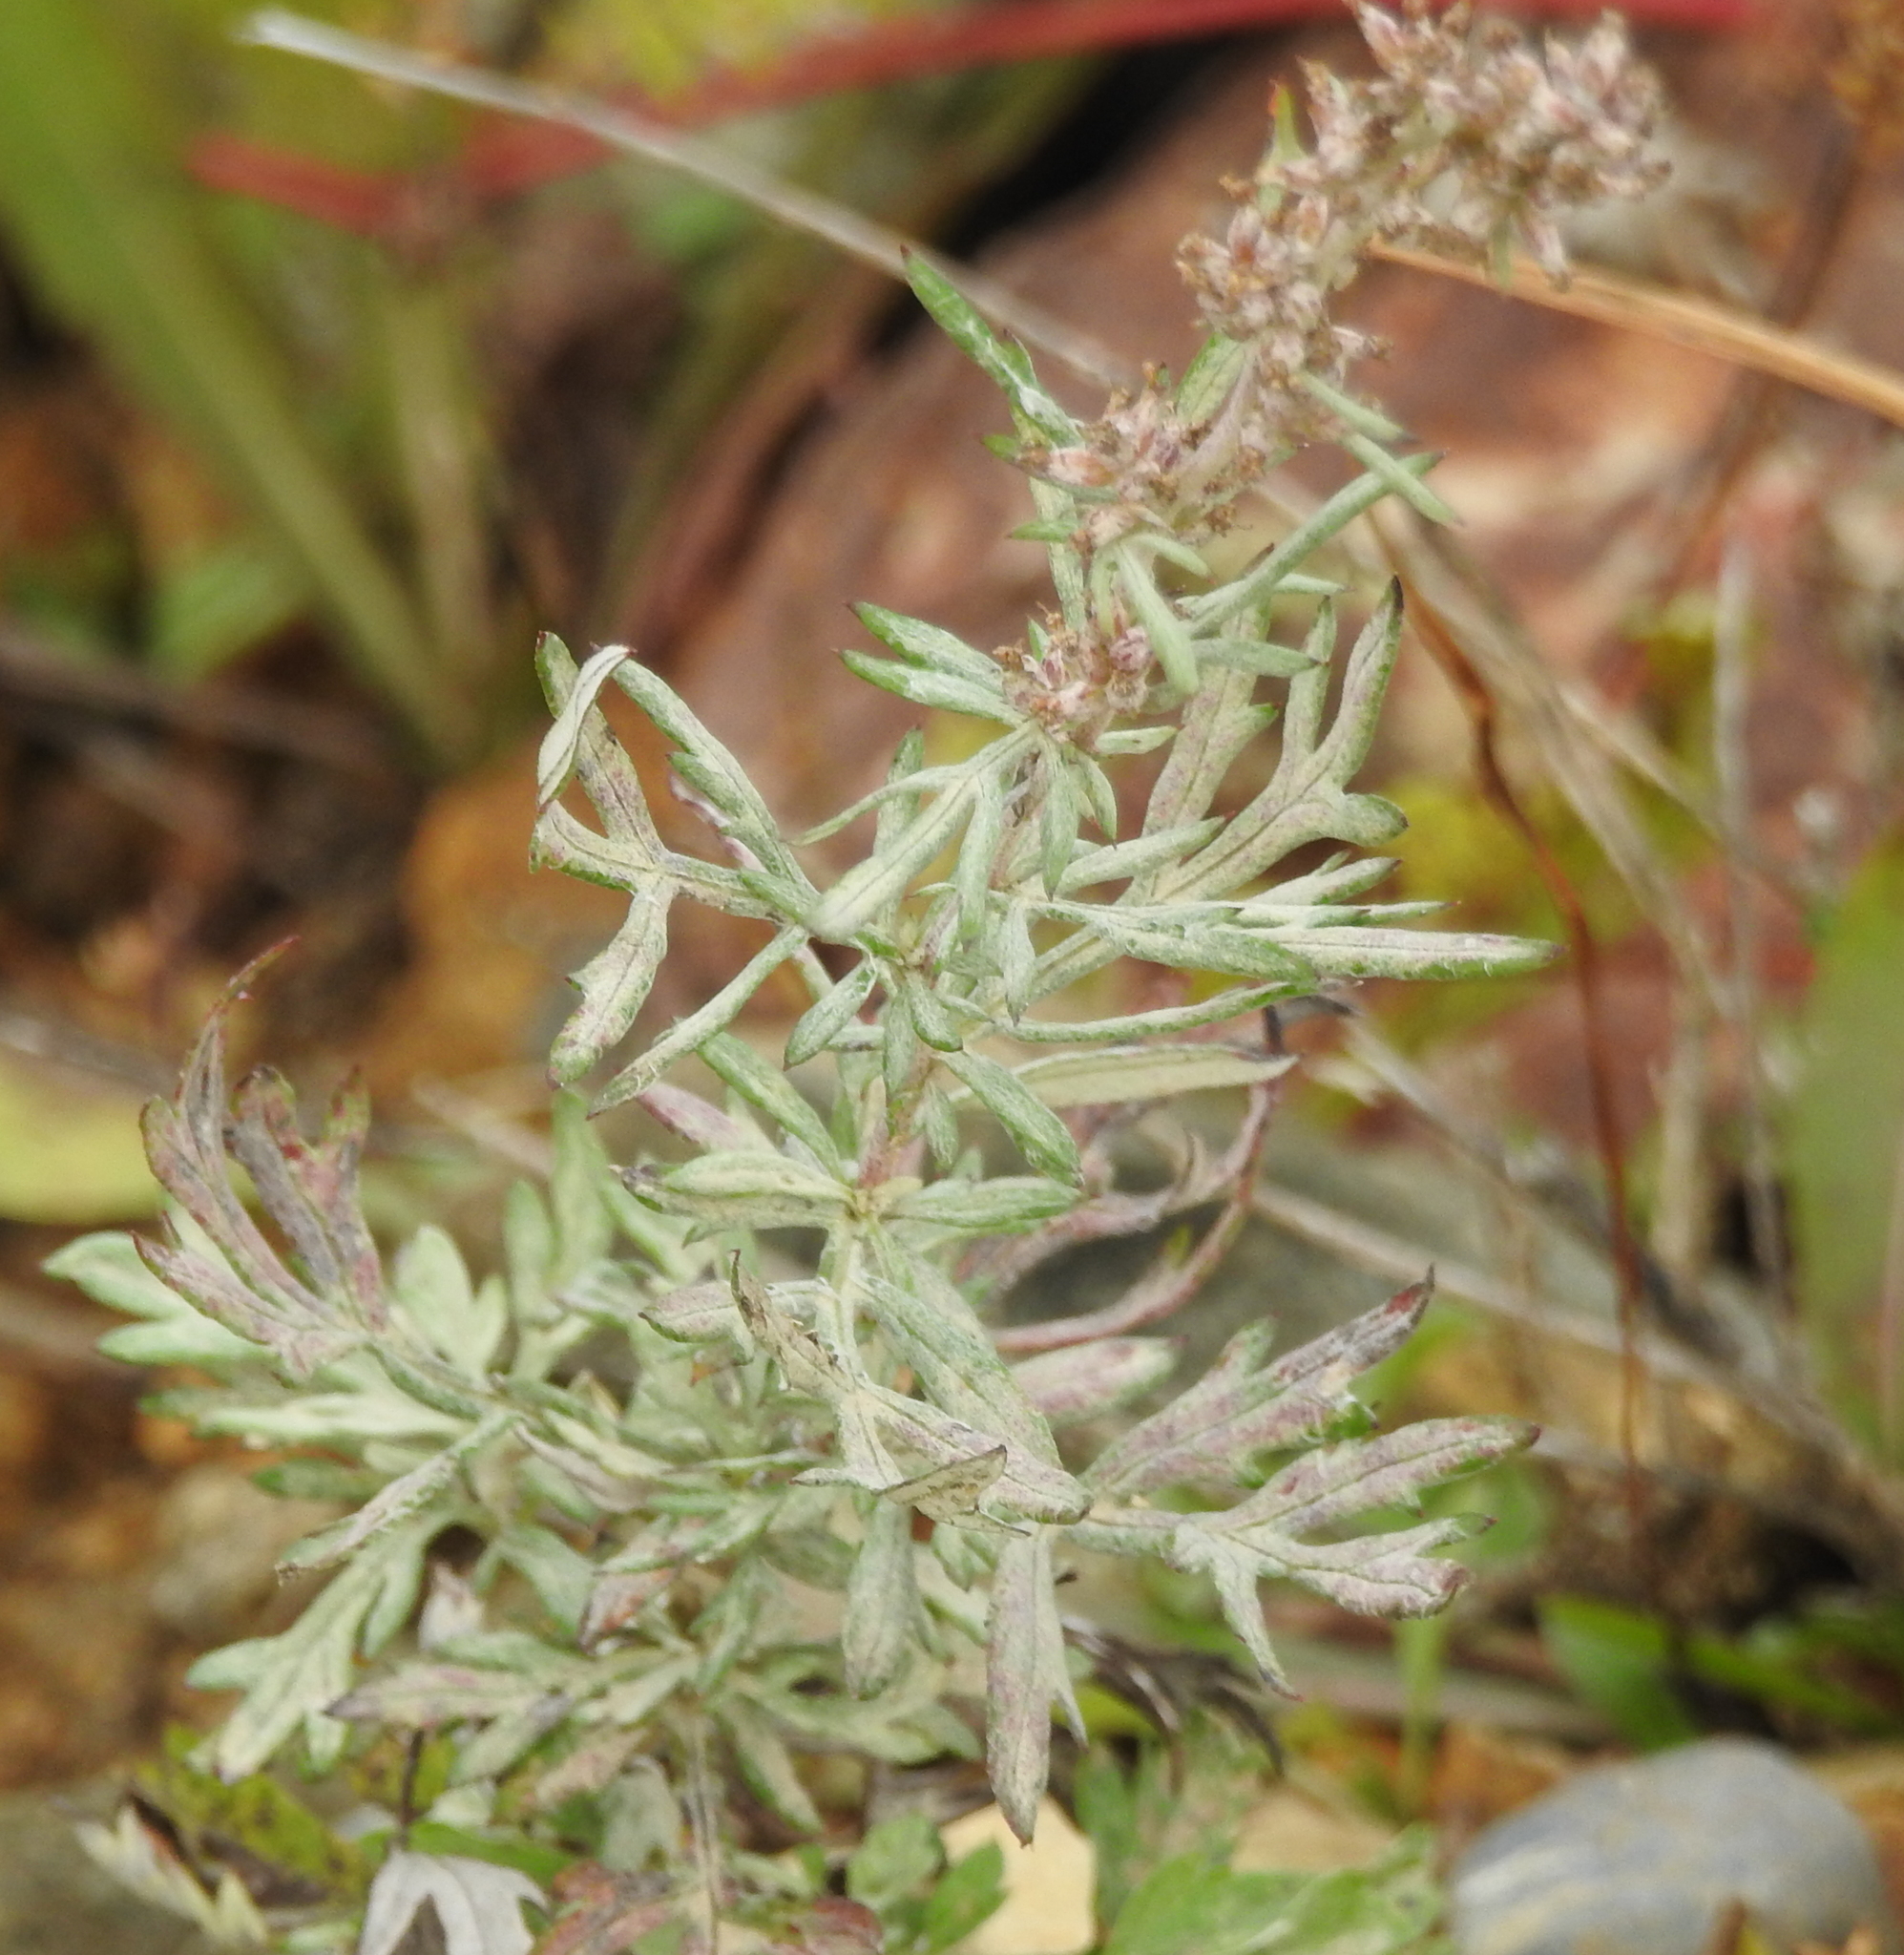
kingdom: Plantae
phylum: Tracheophyta
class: Magnoliopsida
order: Asterales
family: Asteraceae
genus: Artemisia
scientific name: Artemisia vulgaris
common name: Mugwort
